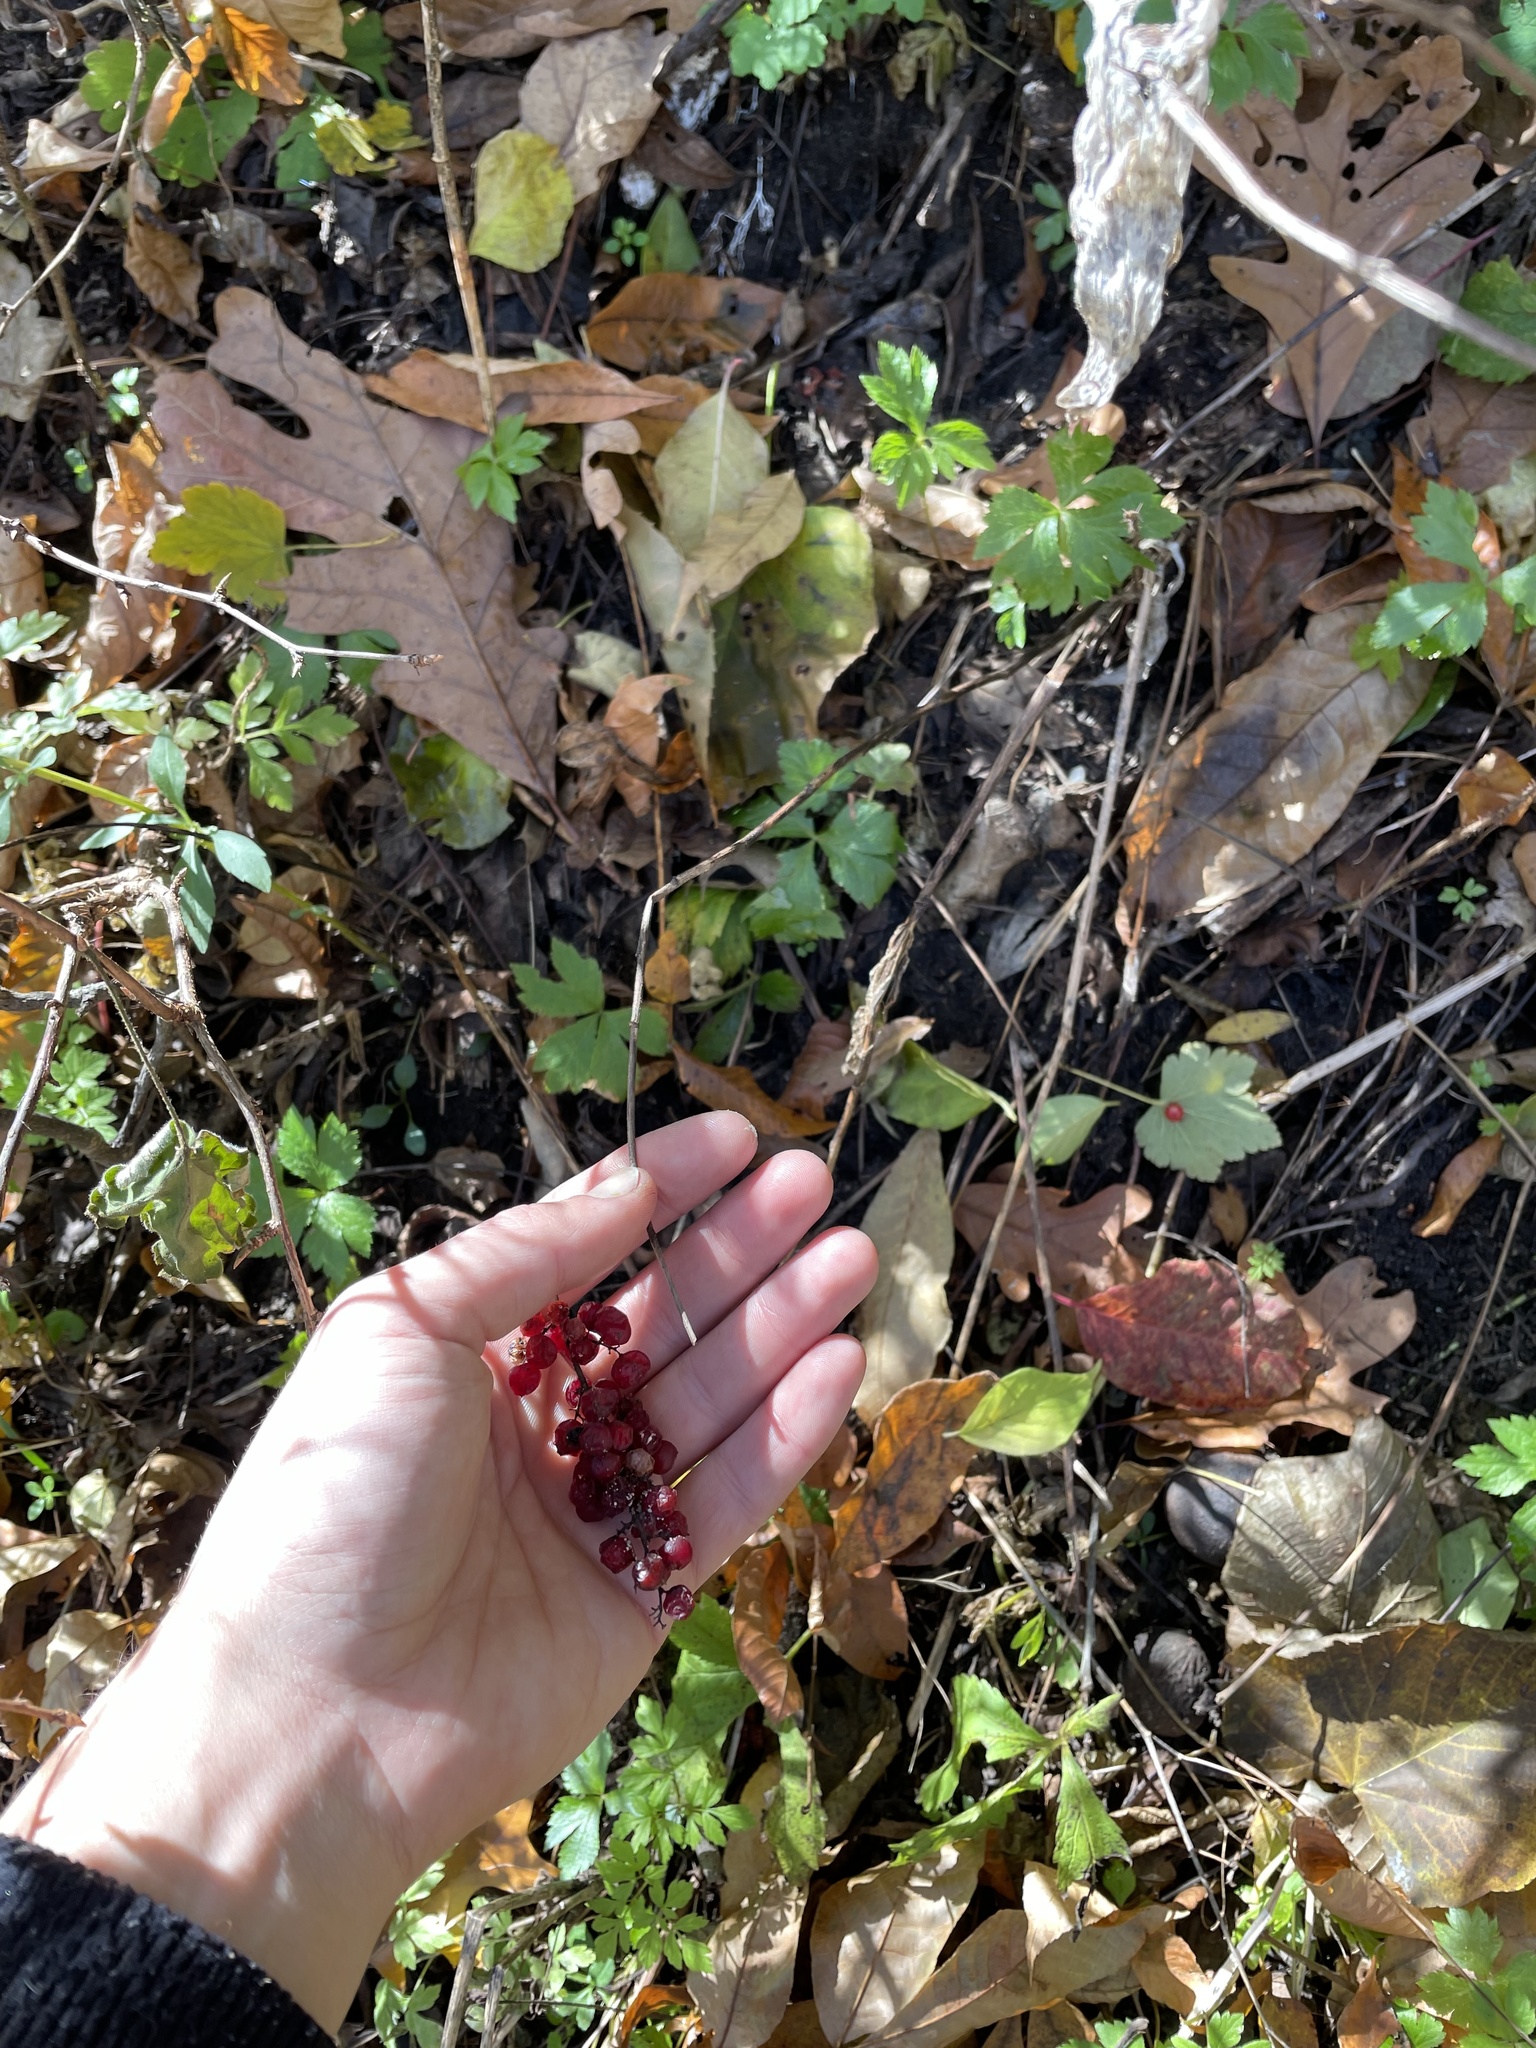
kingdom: Plantae
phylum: Tracheophyta
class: Liliopsida
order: Asparagales
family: Asparagaceae
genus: Maianthemum
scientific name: Maianthemum racemosum
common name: False spikenard
